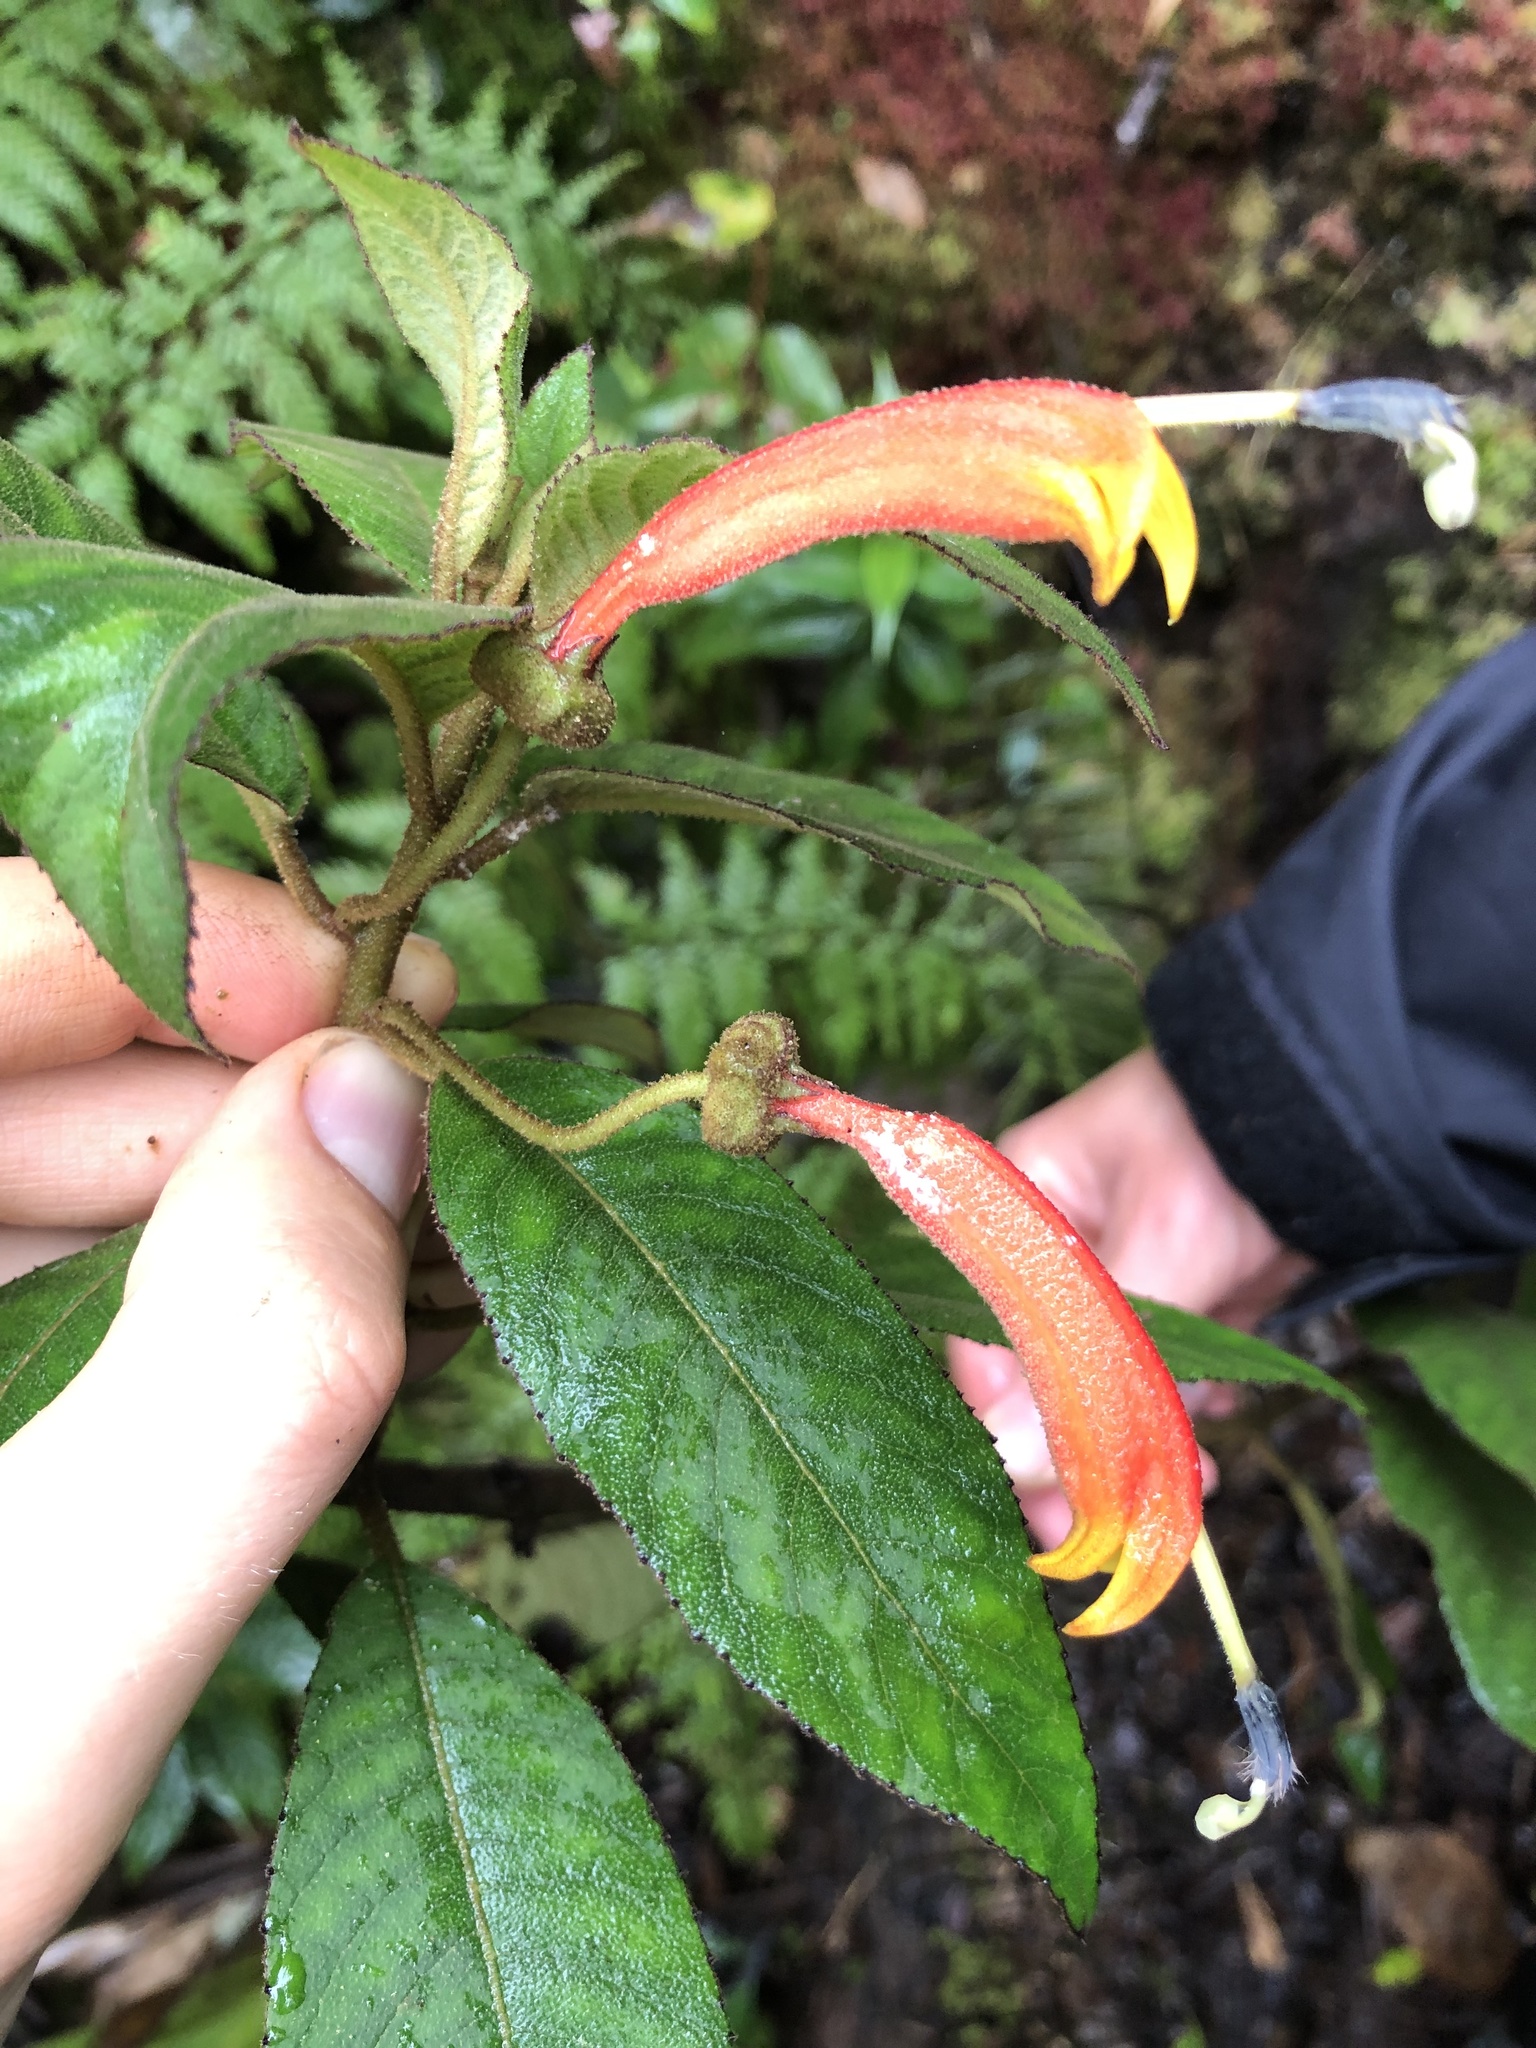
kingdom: Plantae
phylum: Tracheophyta
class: Magnoliopsida
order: Asterales
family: Campanulaceae
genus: Centropogon
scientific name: Centropogon ferrugineus
